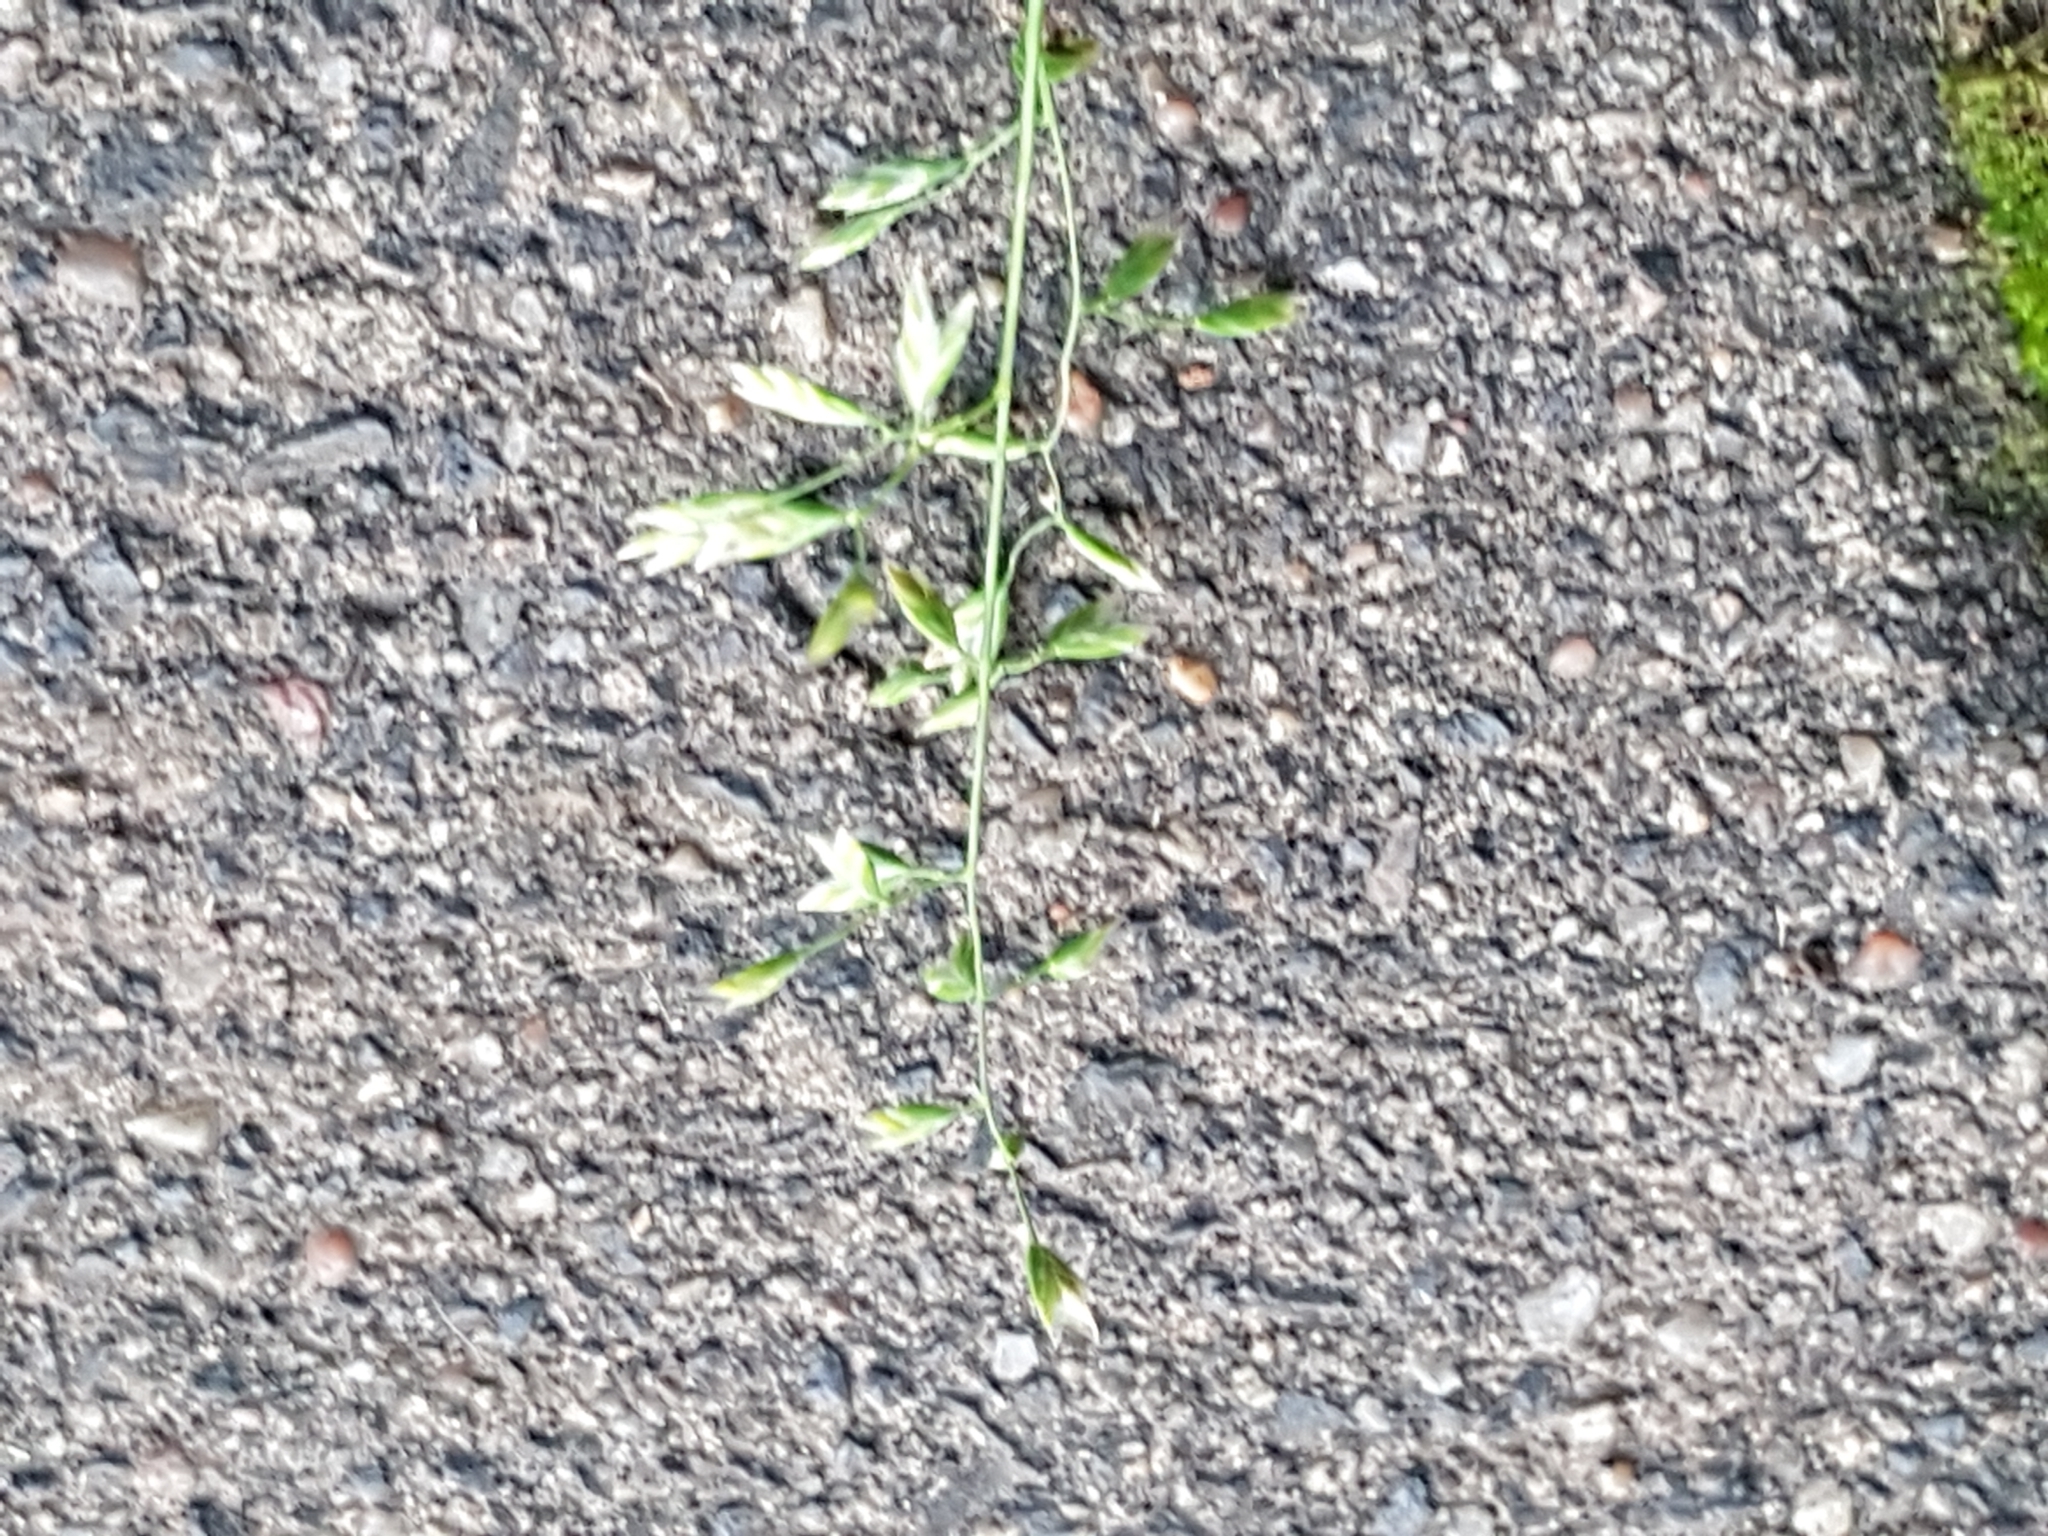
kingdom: Plantae
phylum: Tracheophyta
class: Liliopsida
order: Poales
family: Poaceae
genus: Poa
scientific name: Poa annua
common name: Annual bluegrass
